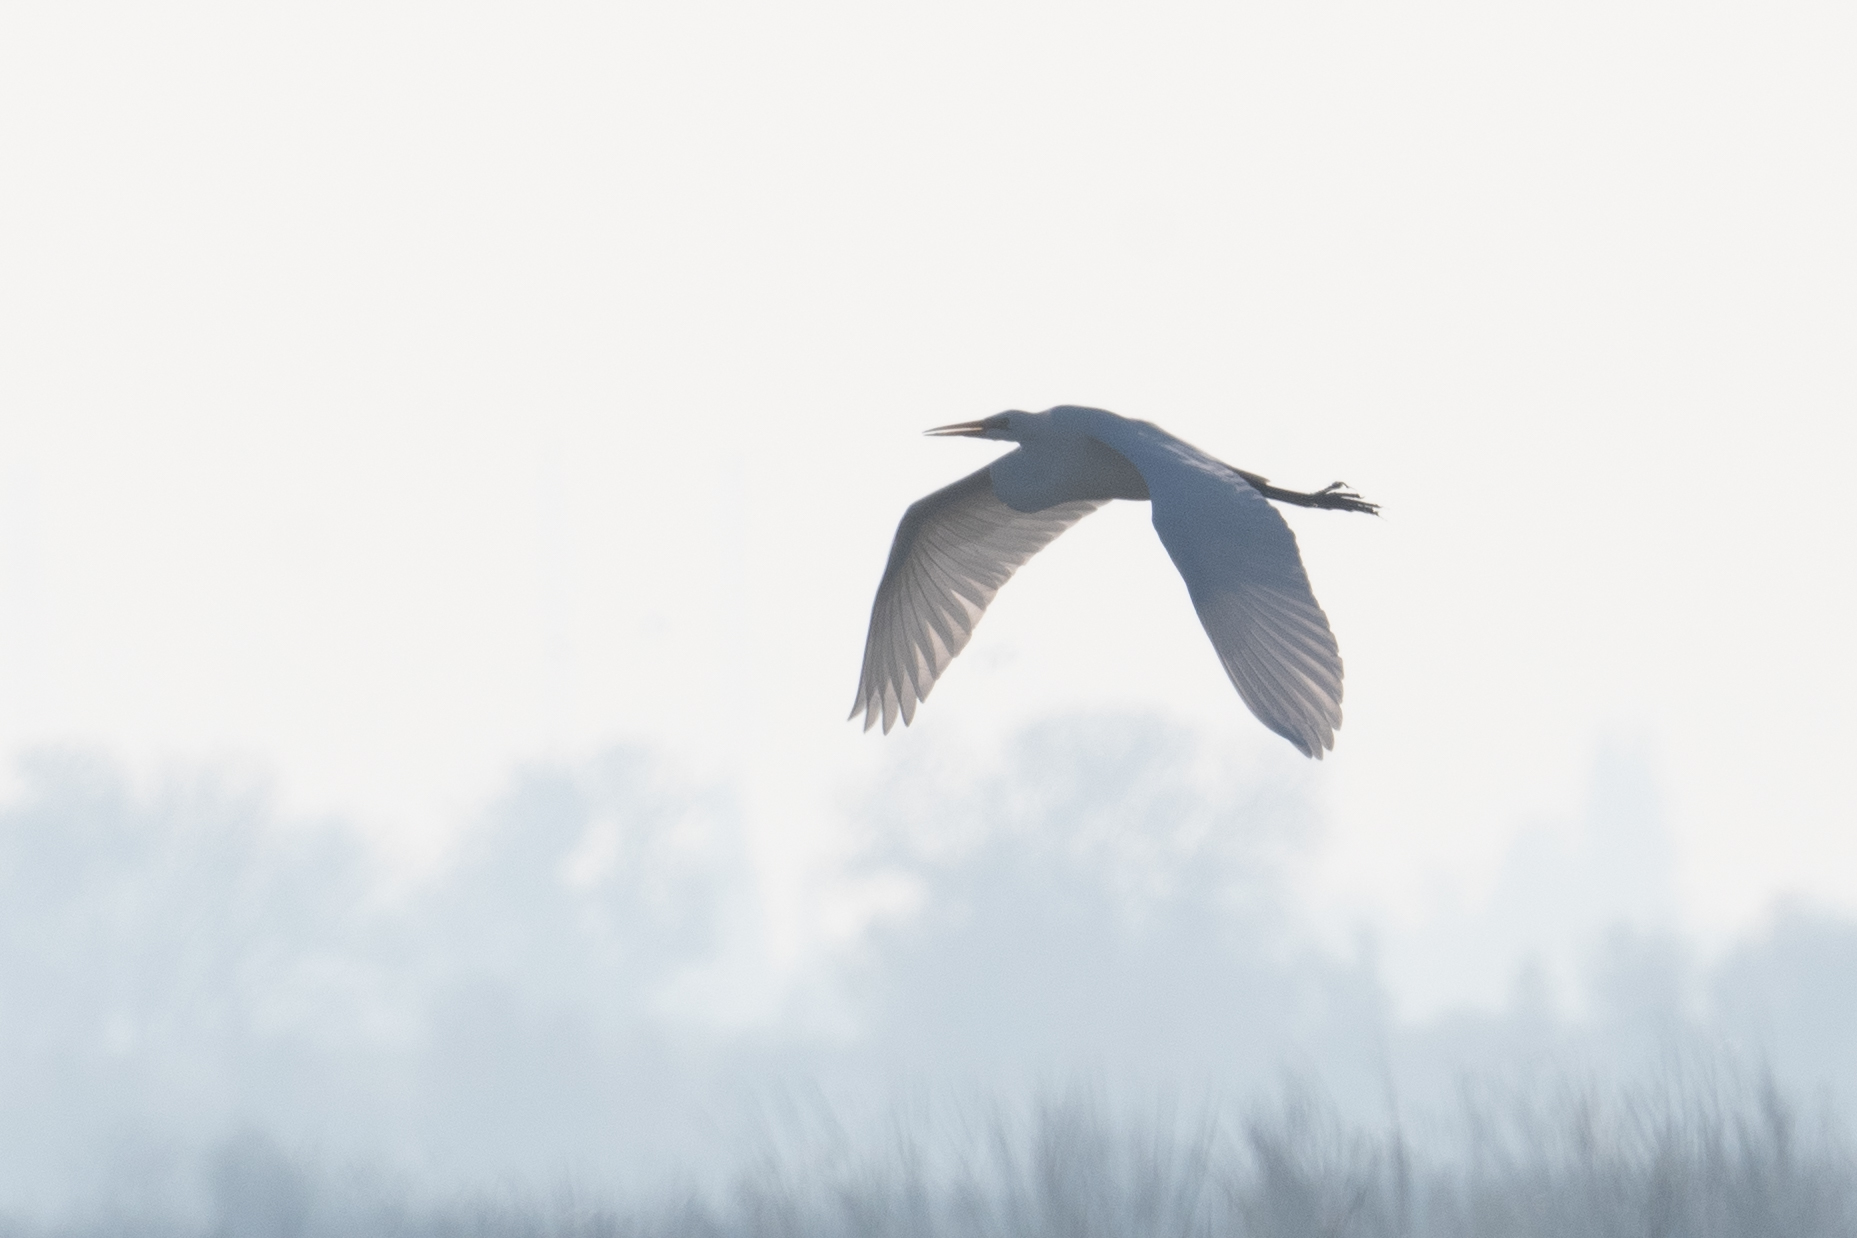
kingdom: Animalia
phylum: Chordata
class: Aves
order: Pelecaniformes
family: Ardeidae
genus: Ardea
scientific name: Ardea alba
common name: Great egret
